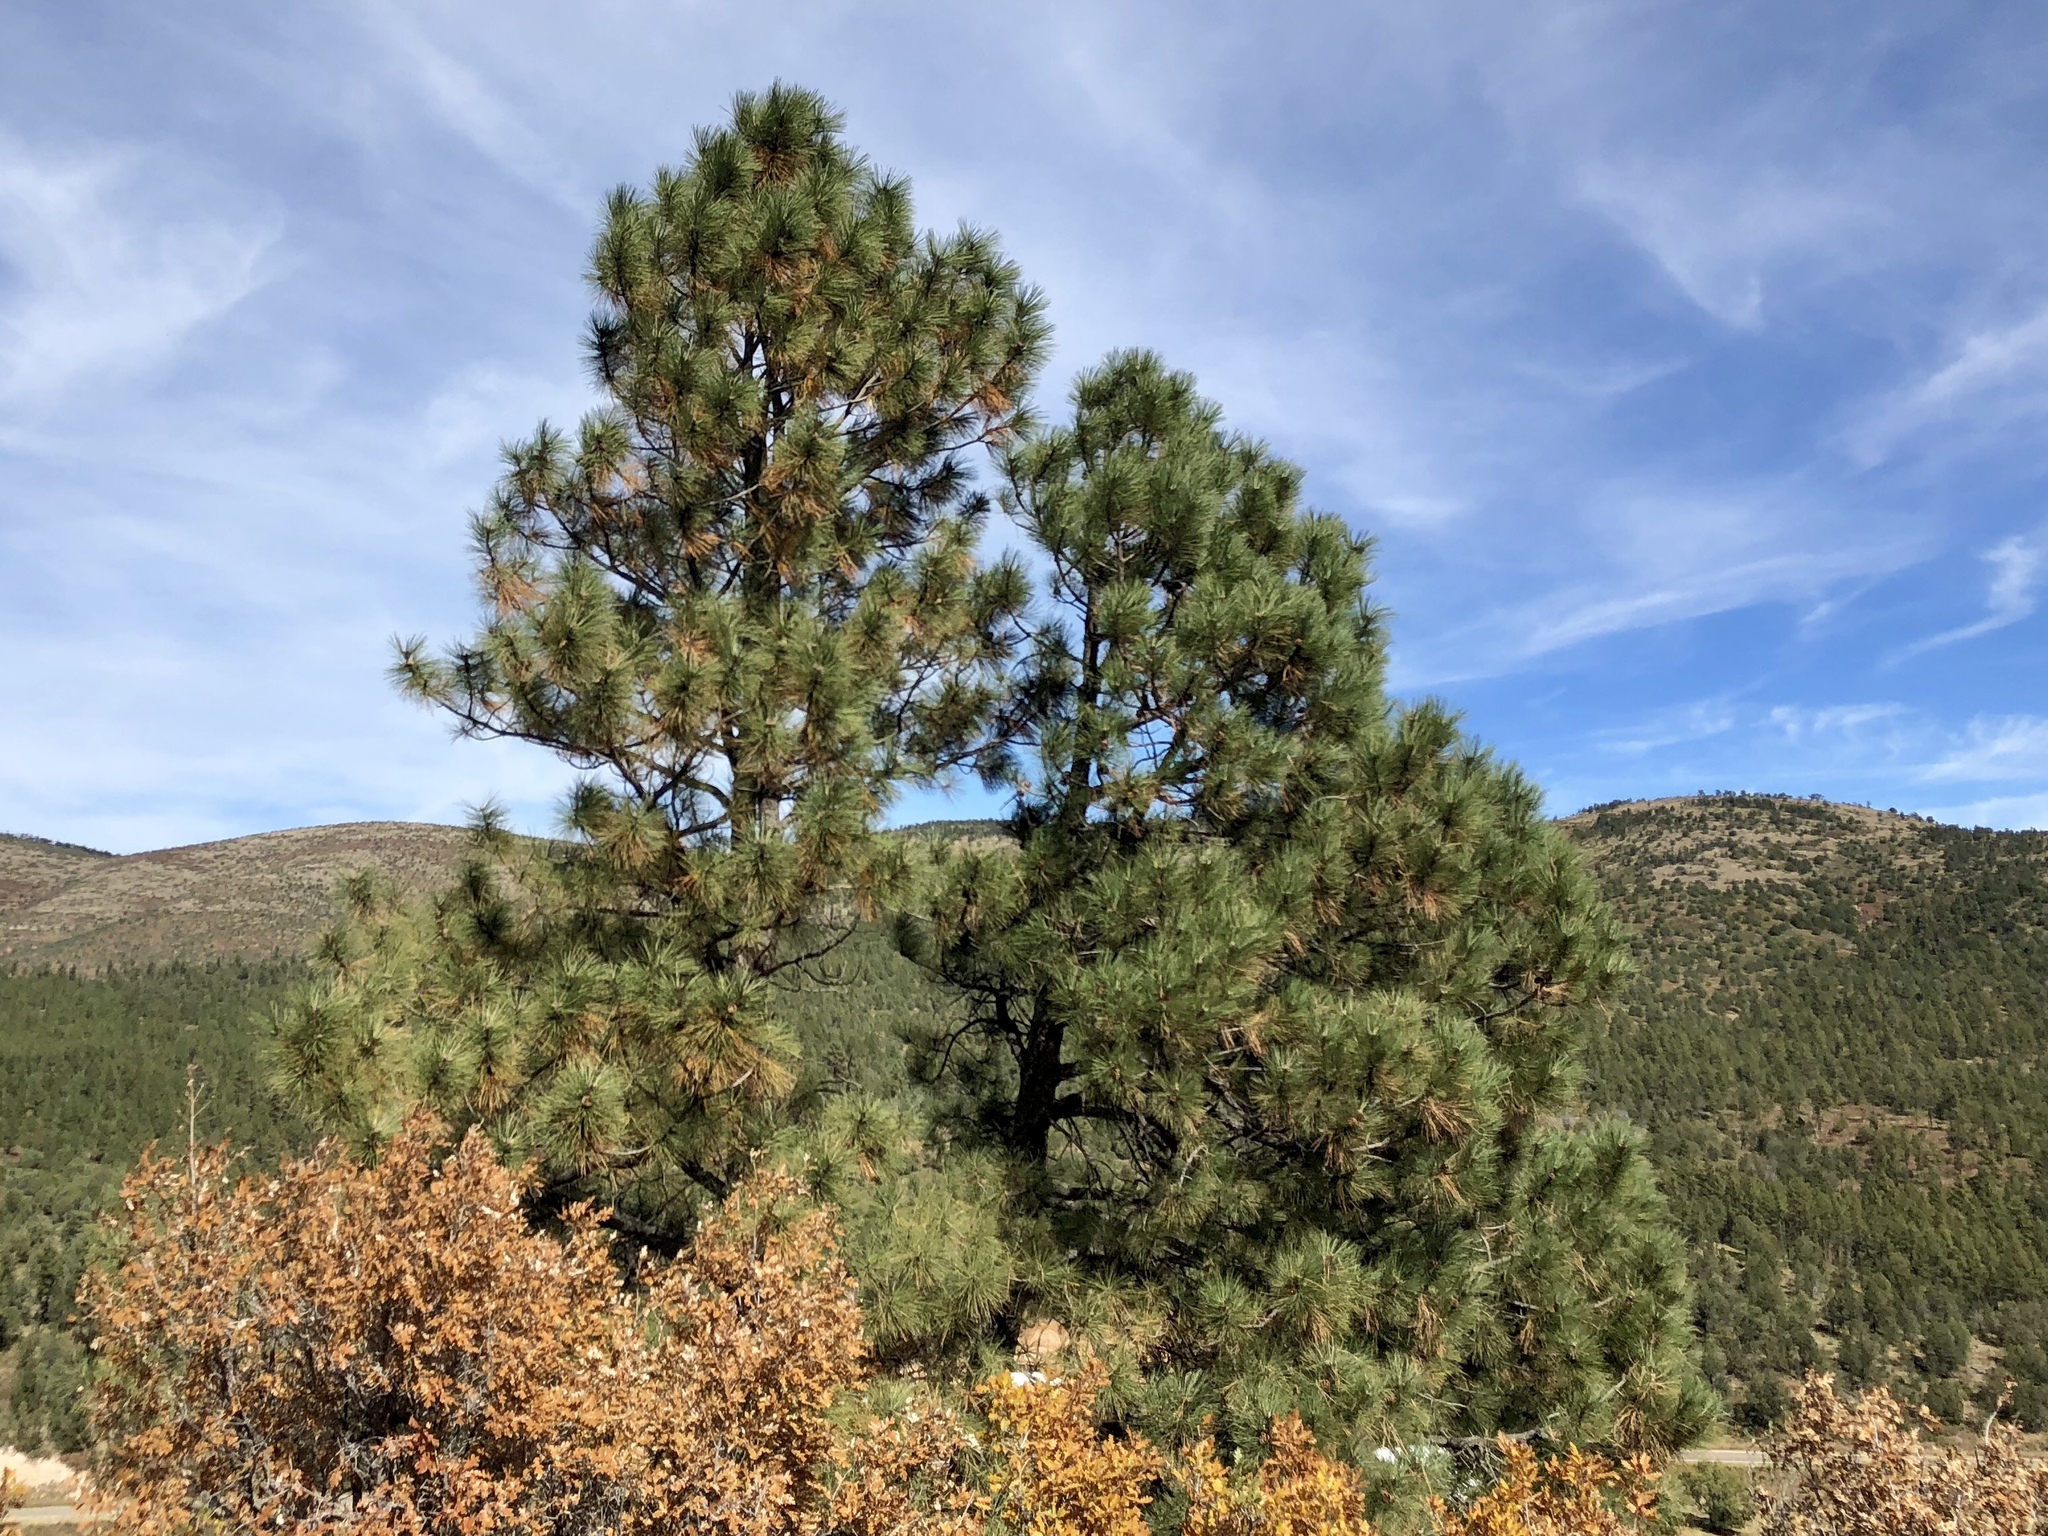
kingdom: Plantae
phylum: Tracheophyta
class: Pinopsida
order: Pinales
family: Pinaceae
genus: Pinus
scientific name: Pinus ponderosa
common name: Western yellow-pine
